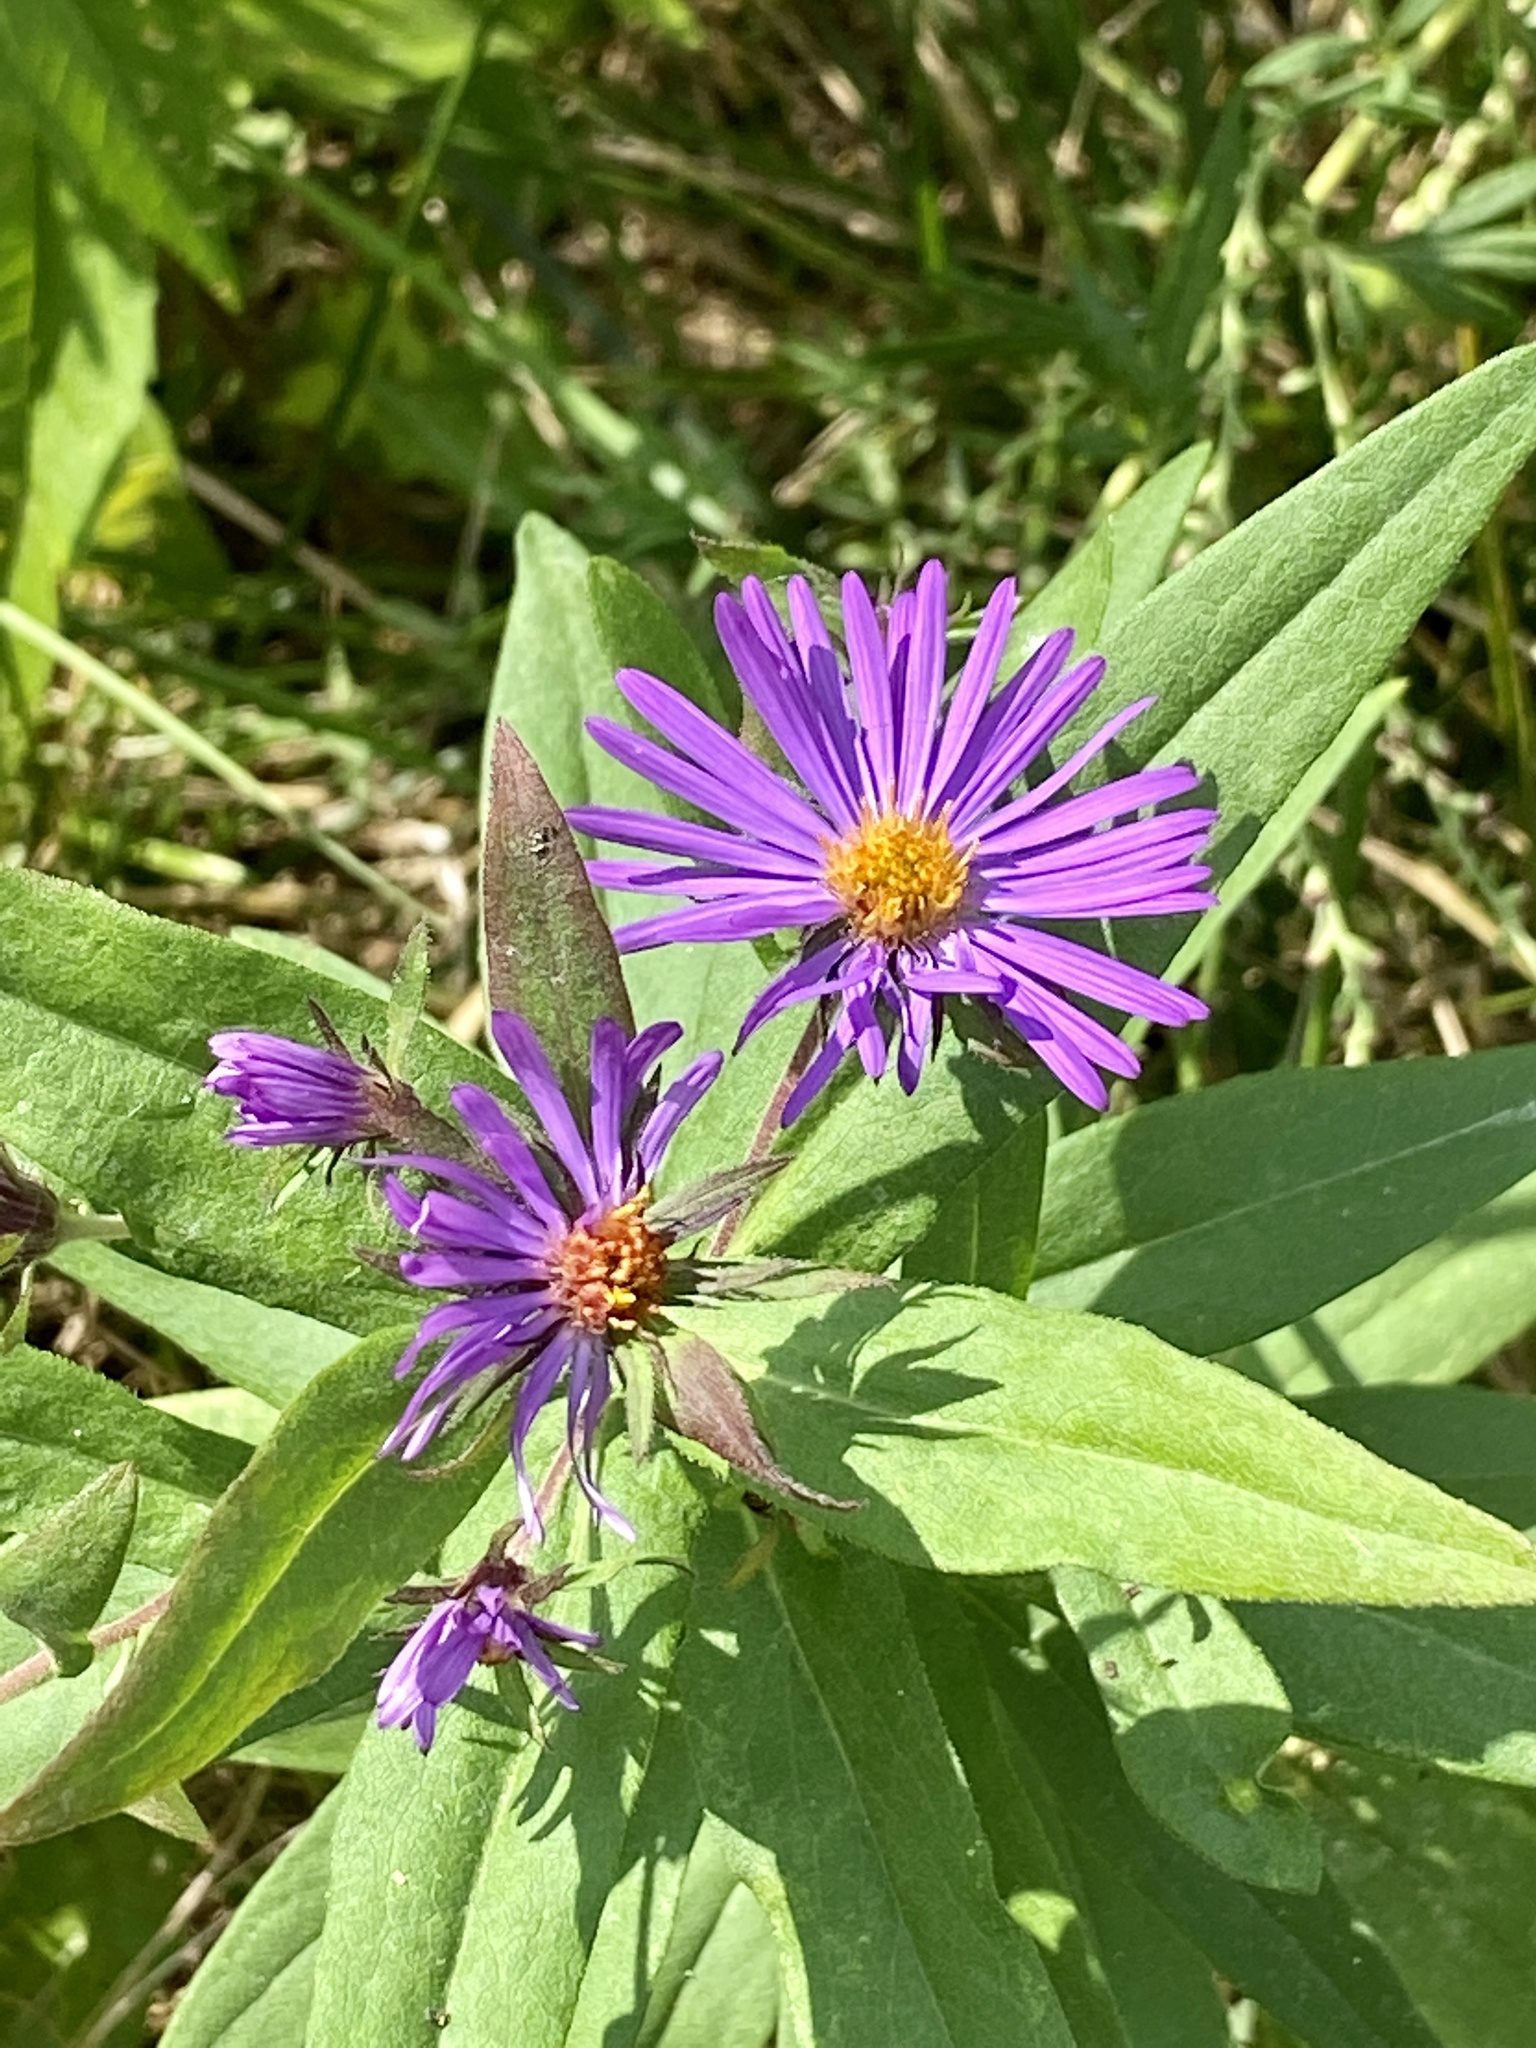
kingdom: Plantae
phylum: Tracheophyta
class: Magnoliopsida
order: Asterales
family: Asteraceae
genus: Symphyotrichum
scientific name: Symphyotrichum novae-angliae
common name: Michaelmas daisy
